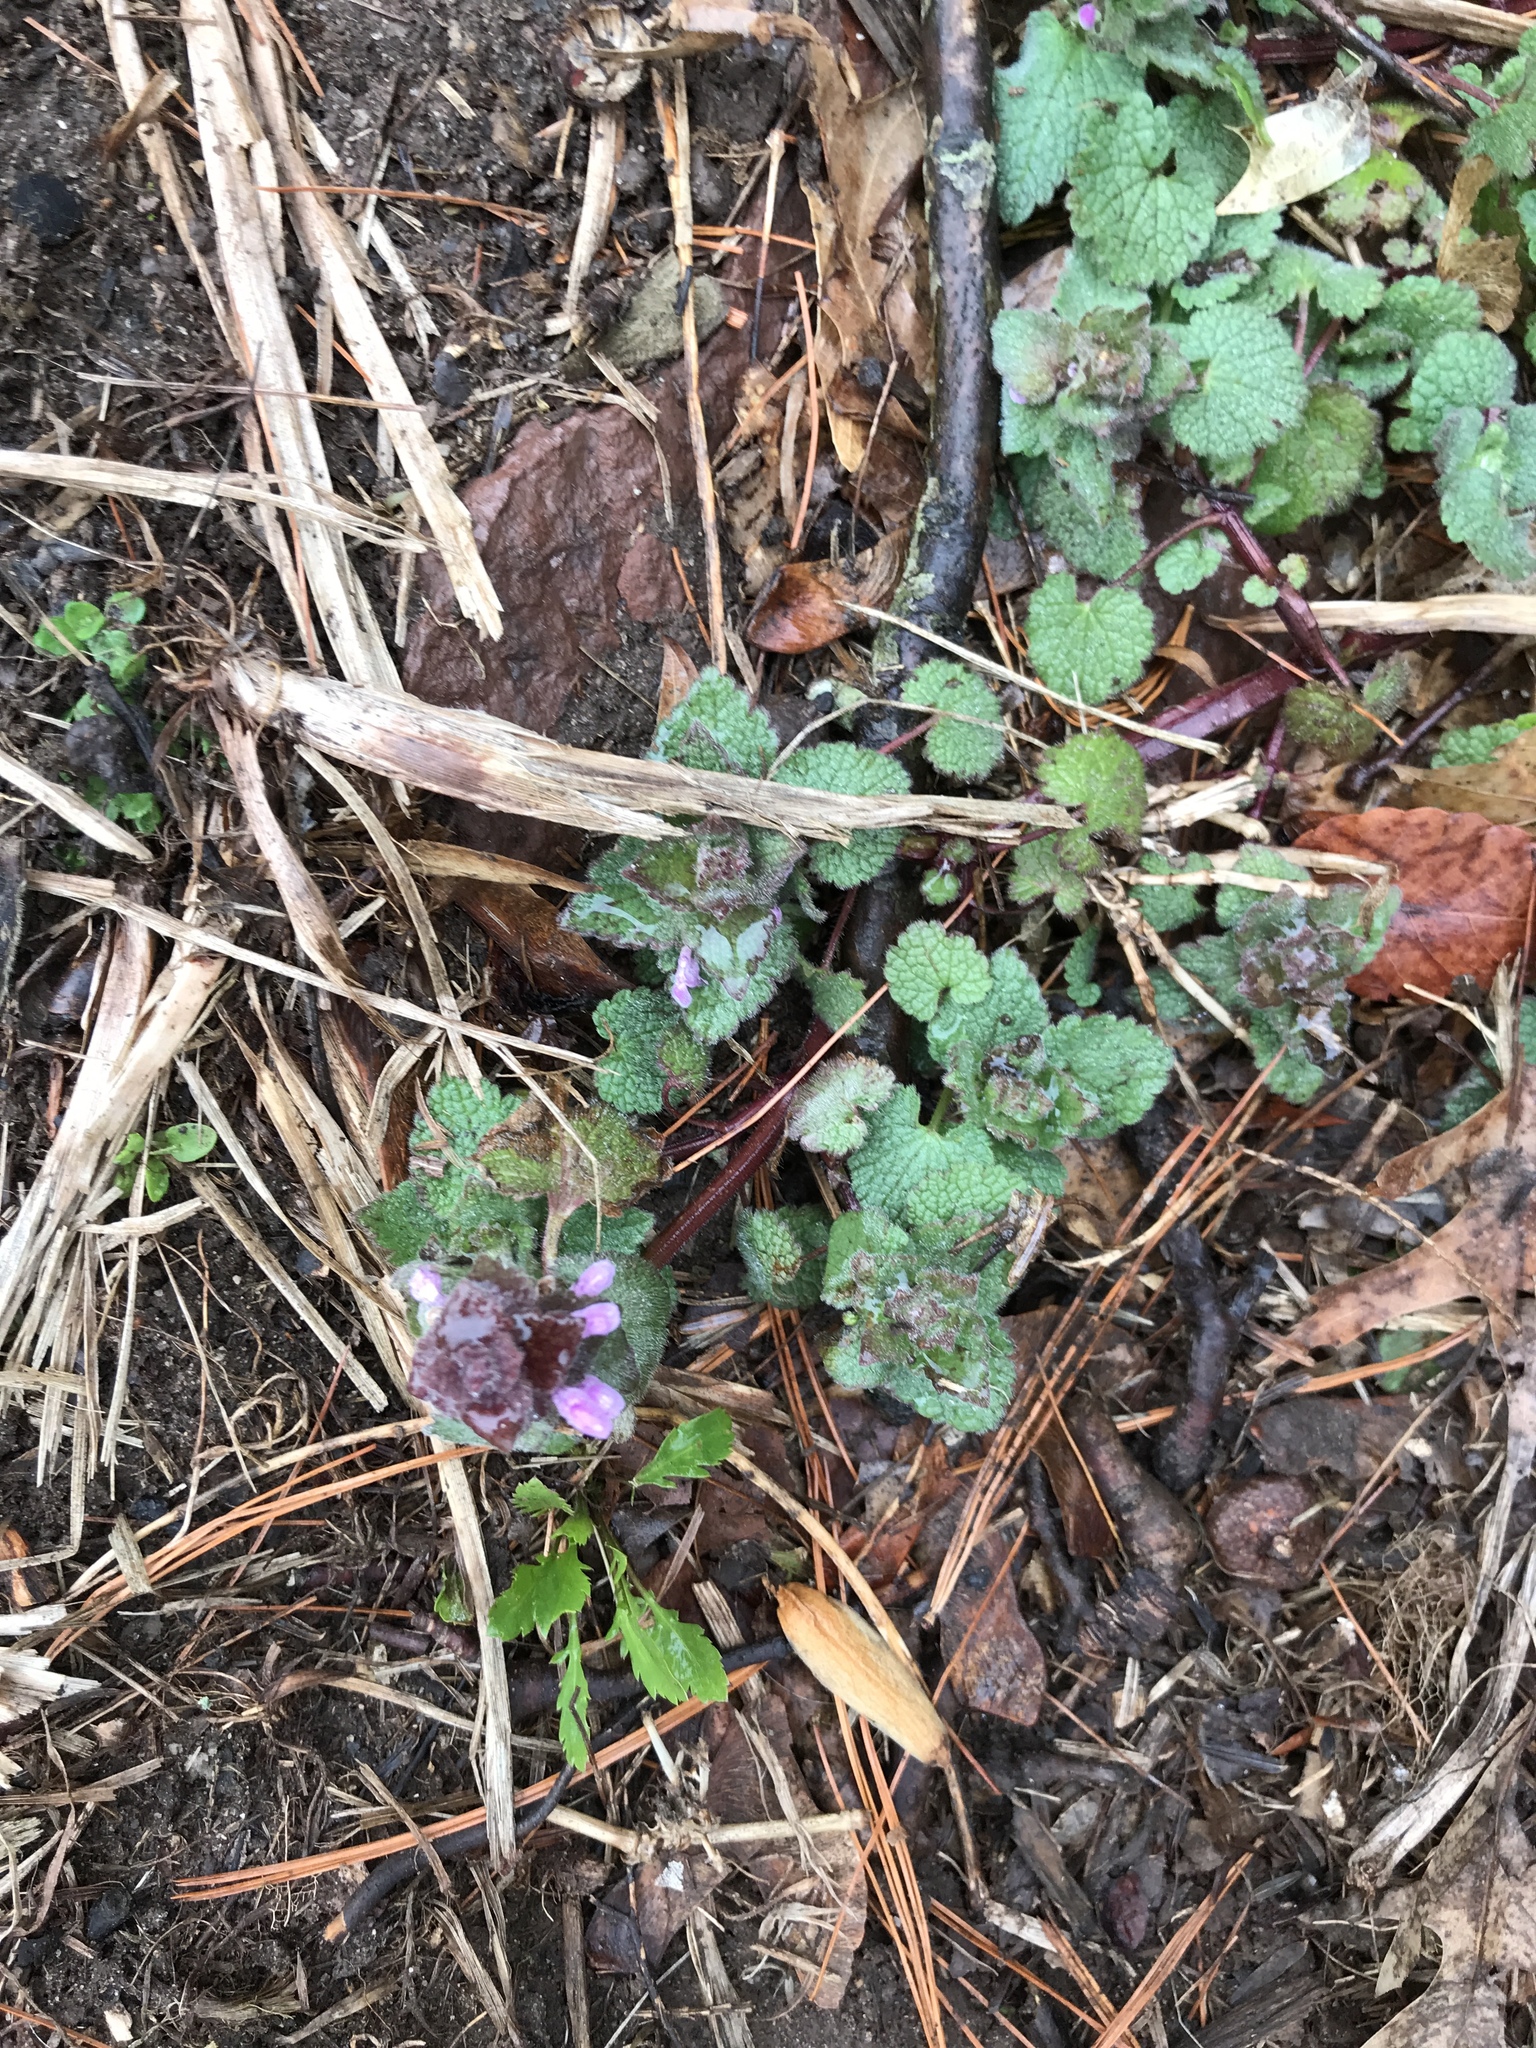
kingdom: Plantae
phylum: Tracheophyta
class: Magnoliopsida
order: Lamiales
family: Lamiaceae
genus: Lamium
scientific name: Lamium purpureum
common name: Red dead-nettle
